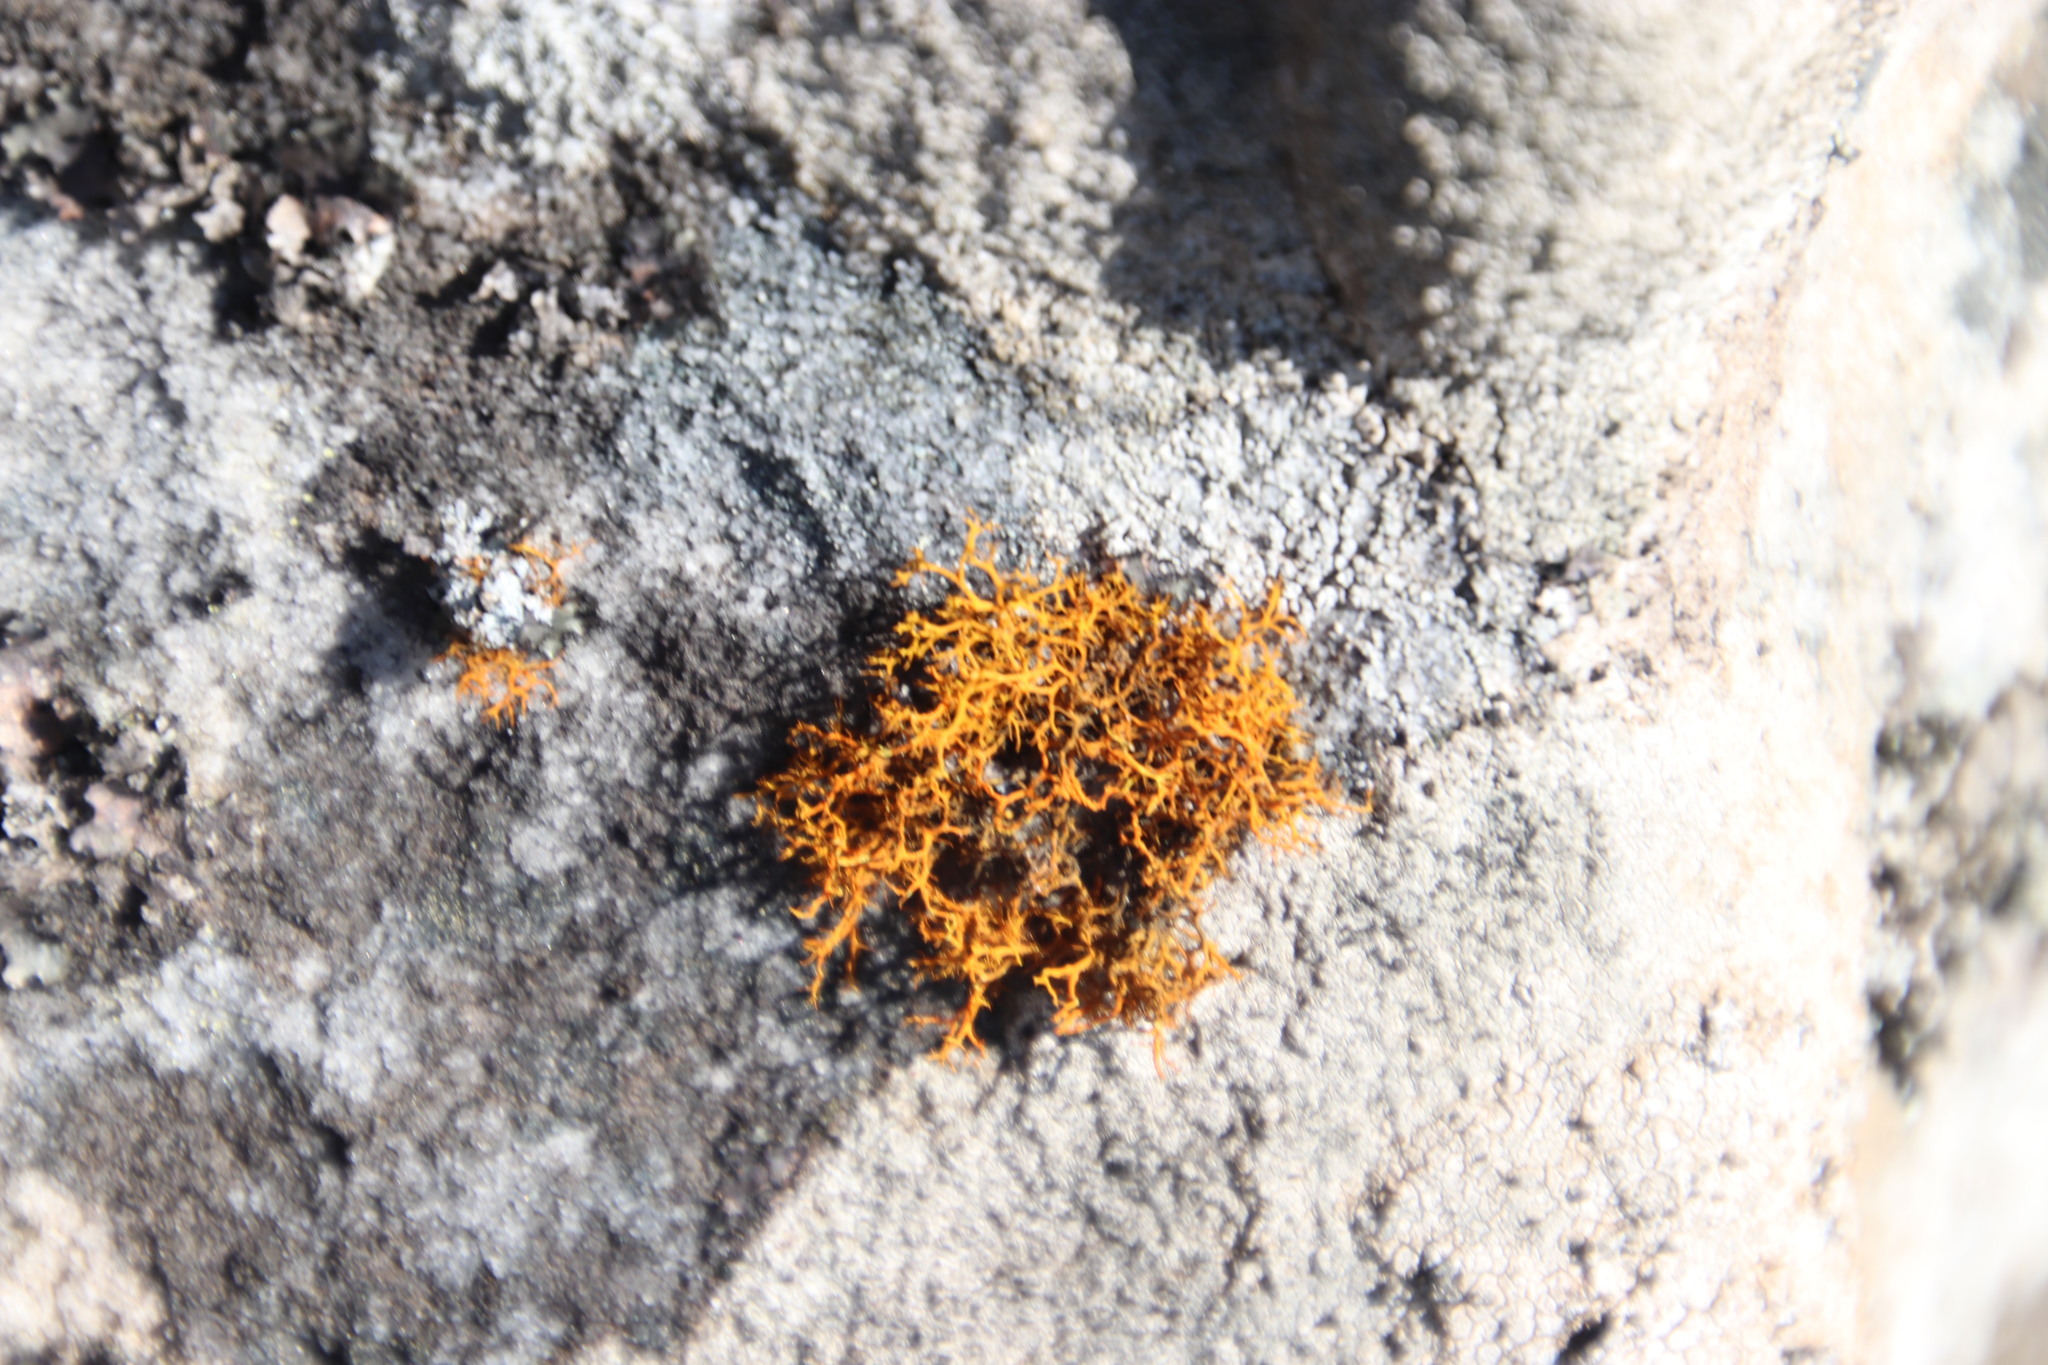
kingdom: Fungi
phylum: Ascomycota
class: Lecanoromycetes
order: Teloschistales
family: Teloschistaceae
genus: Teloschistes
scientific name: Teloschistes flavicans
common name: Golden hair-lichen
